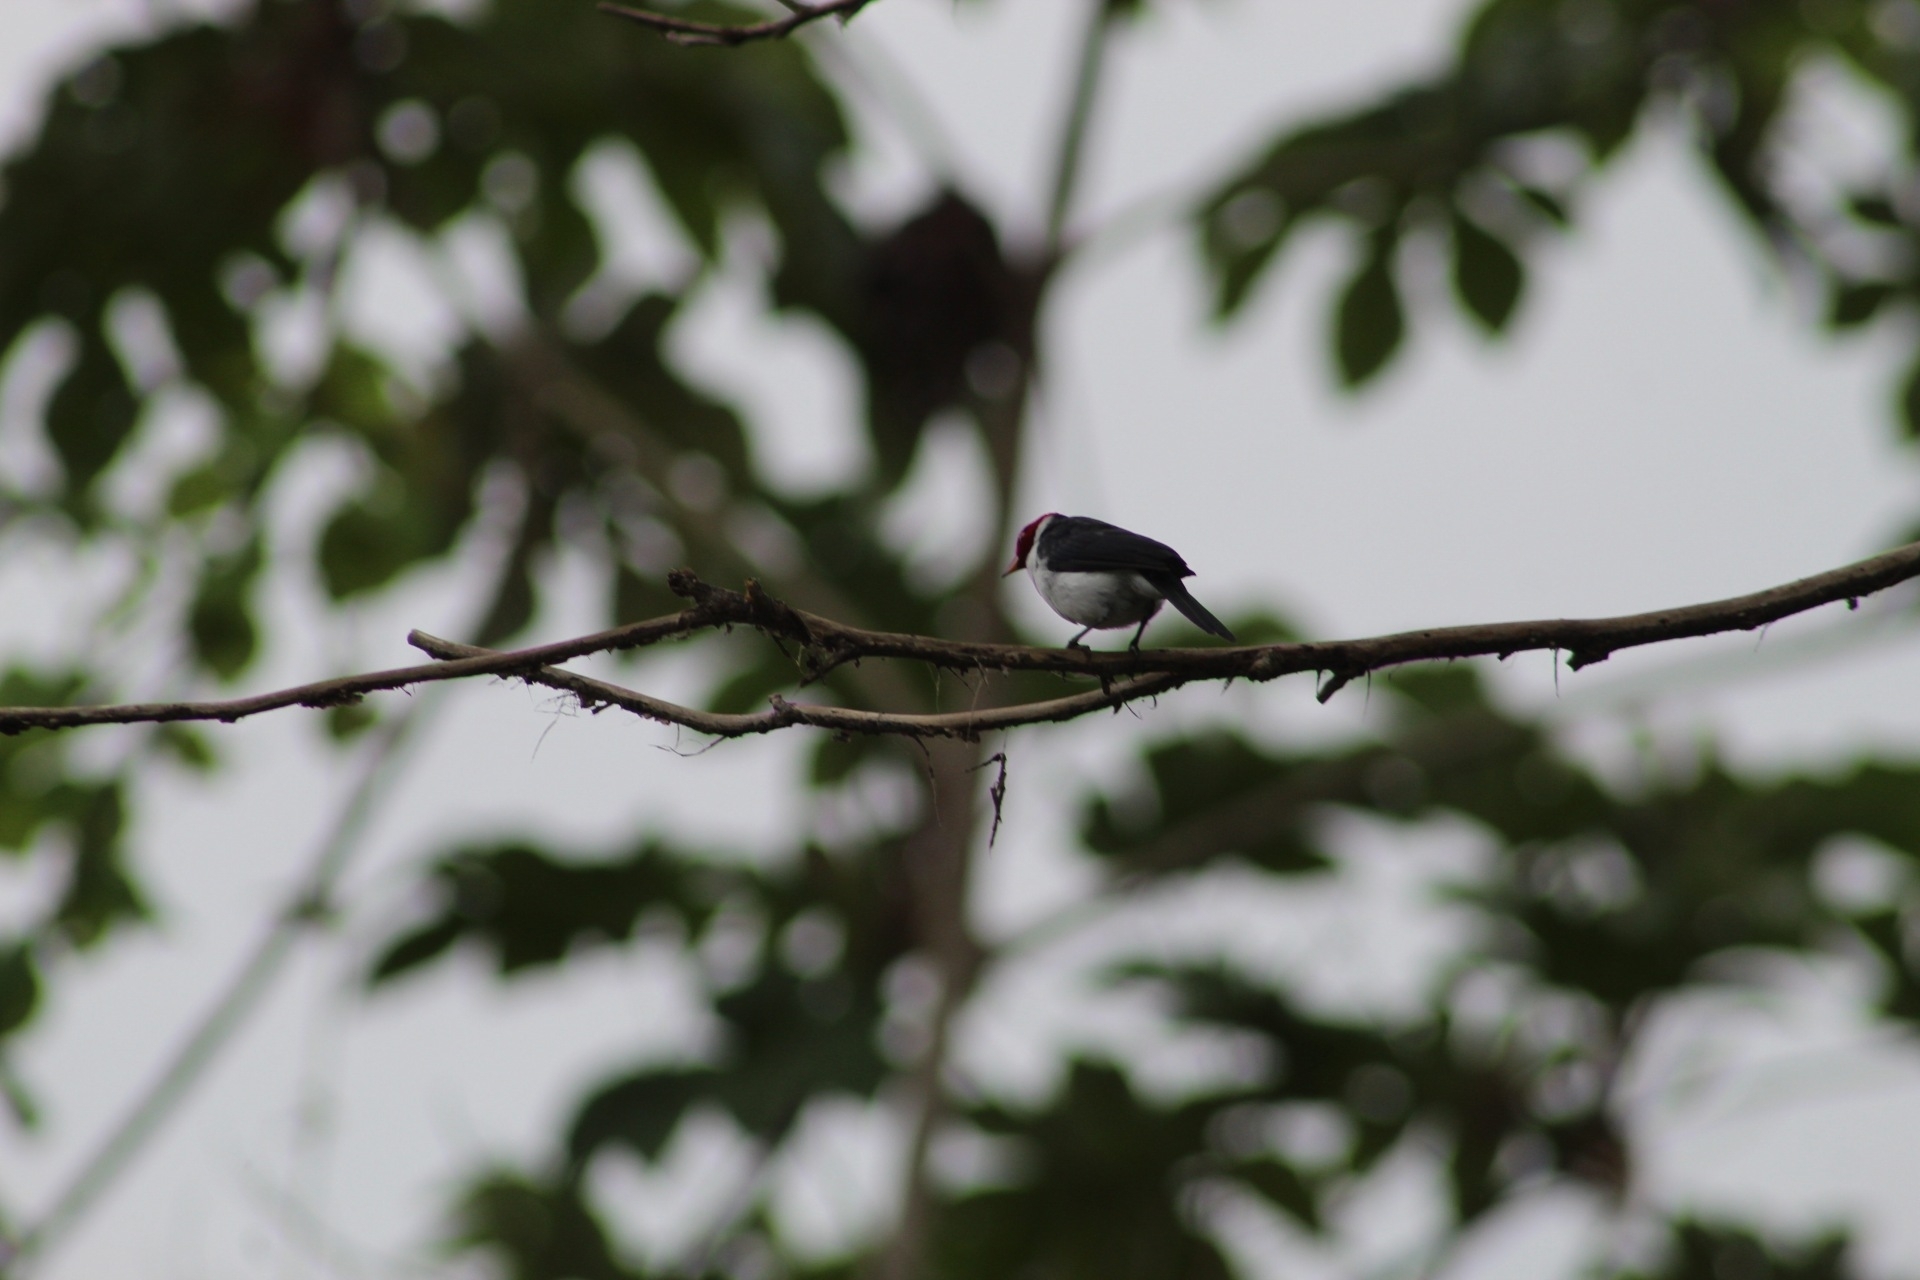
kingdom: Animalia
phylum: Chordata
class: Aves
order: Passeriformes
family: Thraupidae
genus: Paroaria
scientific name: Paroaria gularis
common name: Red-capped cardinal
